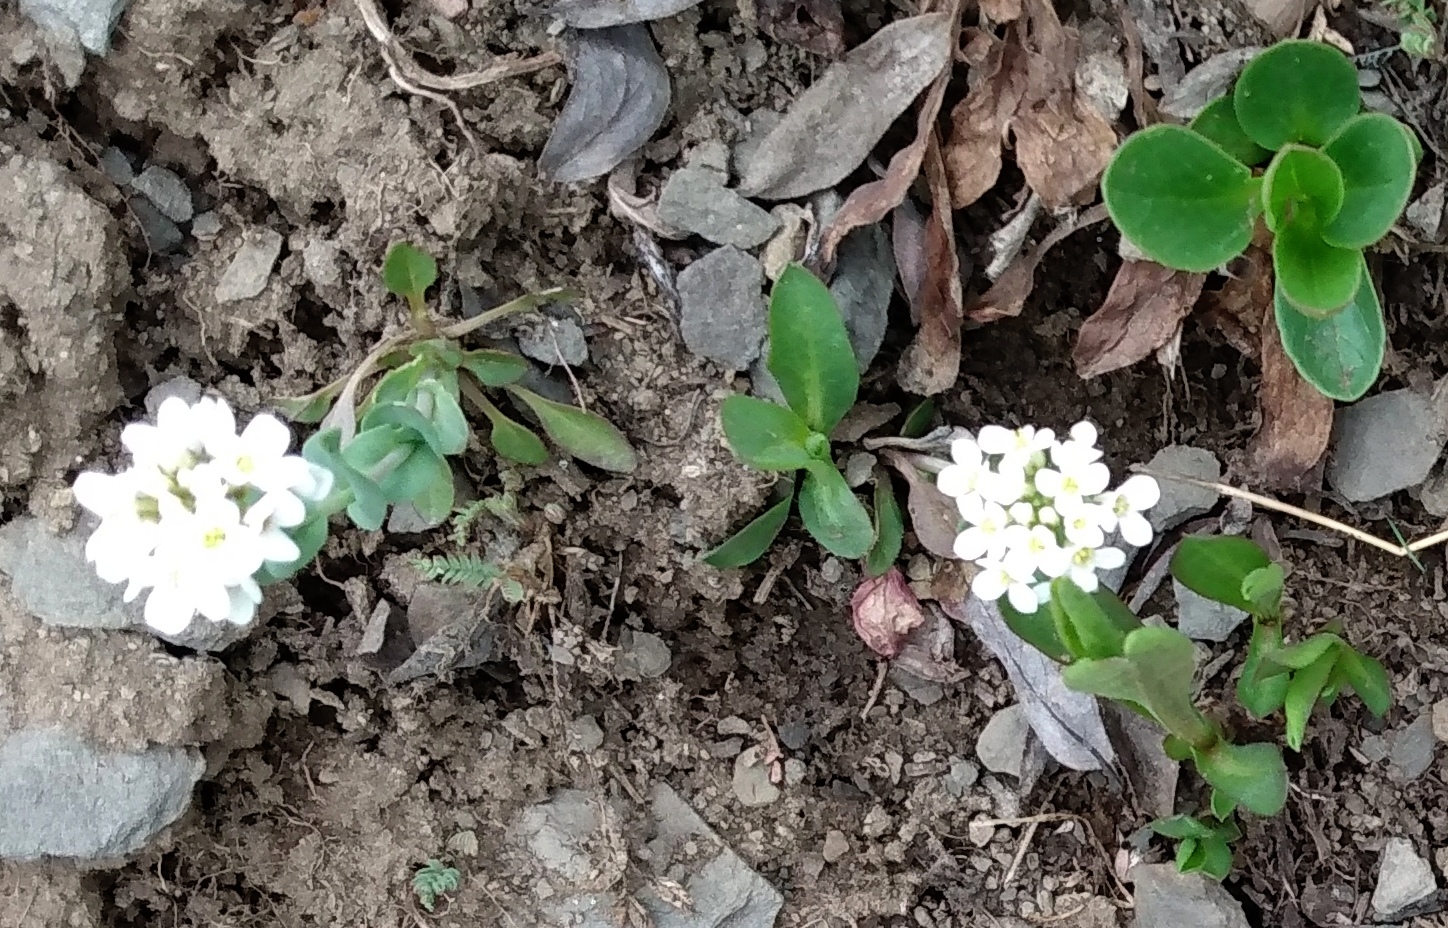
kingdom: Plantae
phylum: Tracheophyta
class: Magnoliopsida
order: Brassicales
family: Brassicaceae
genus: Noccaea
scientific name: Noccaea fendleri
